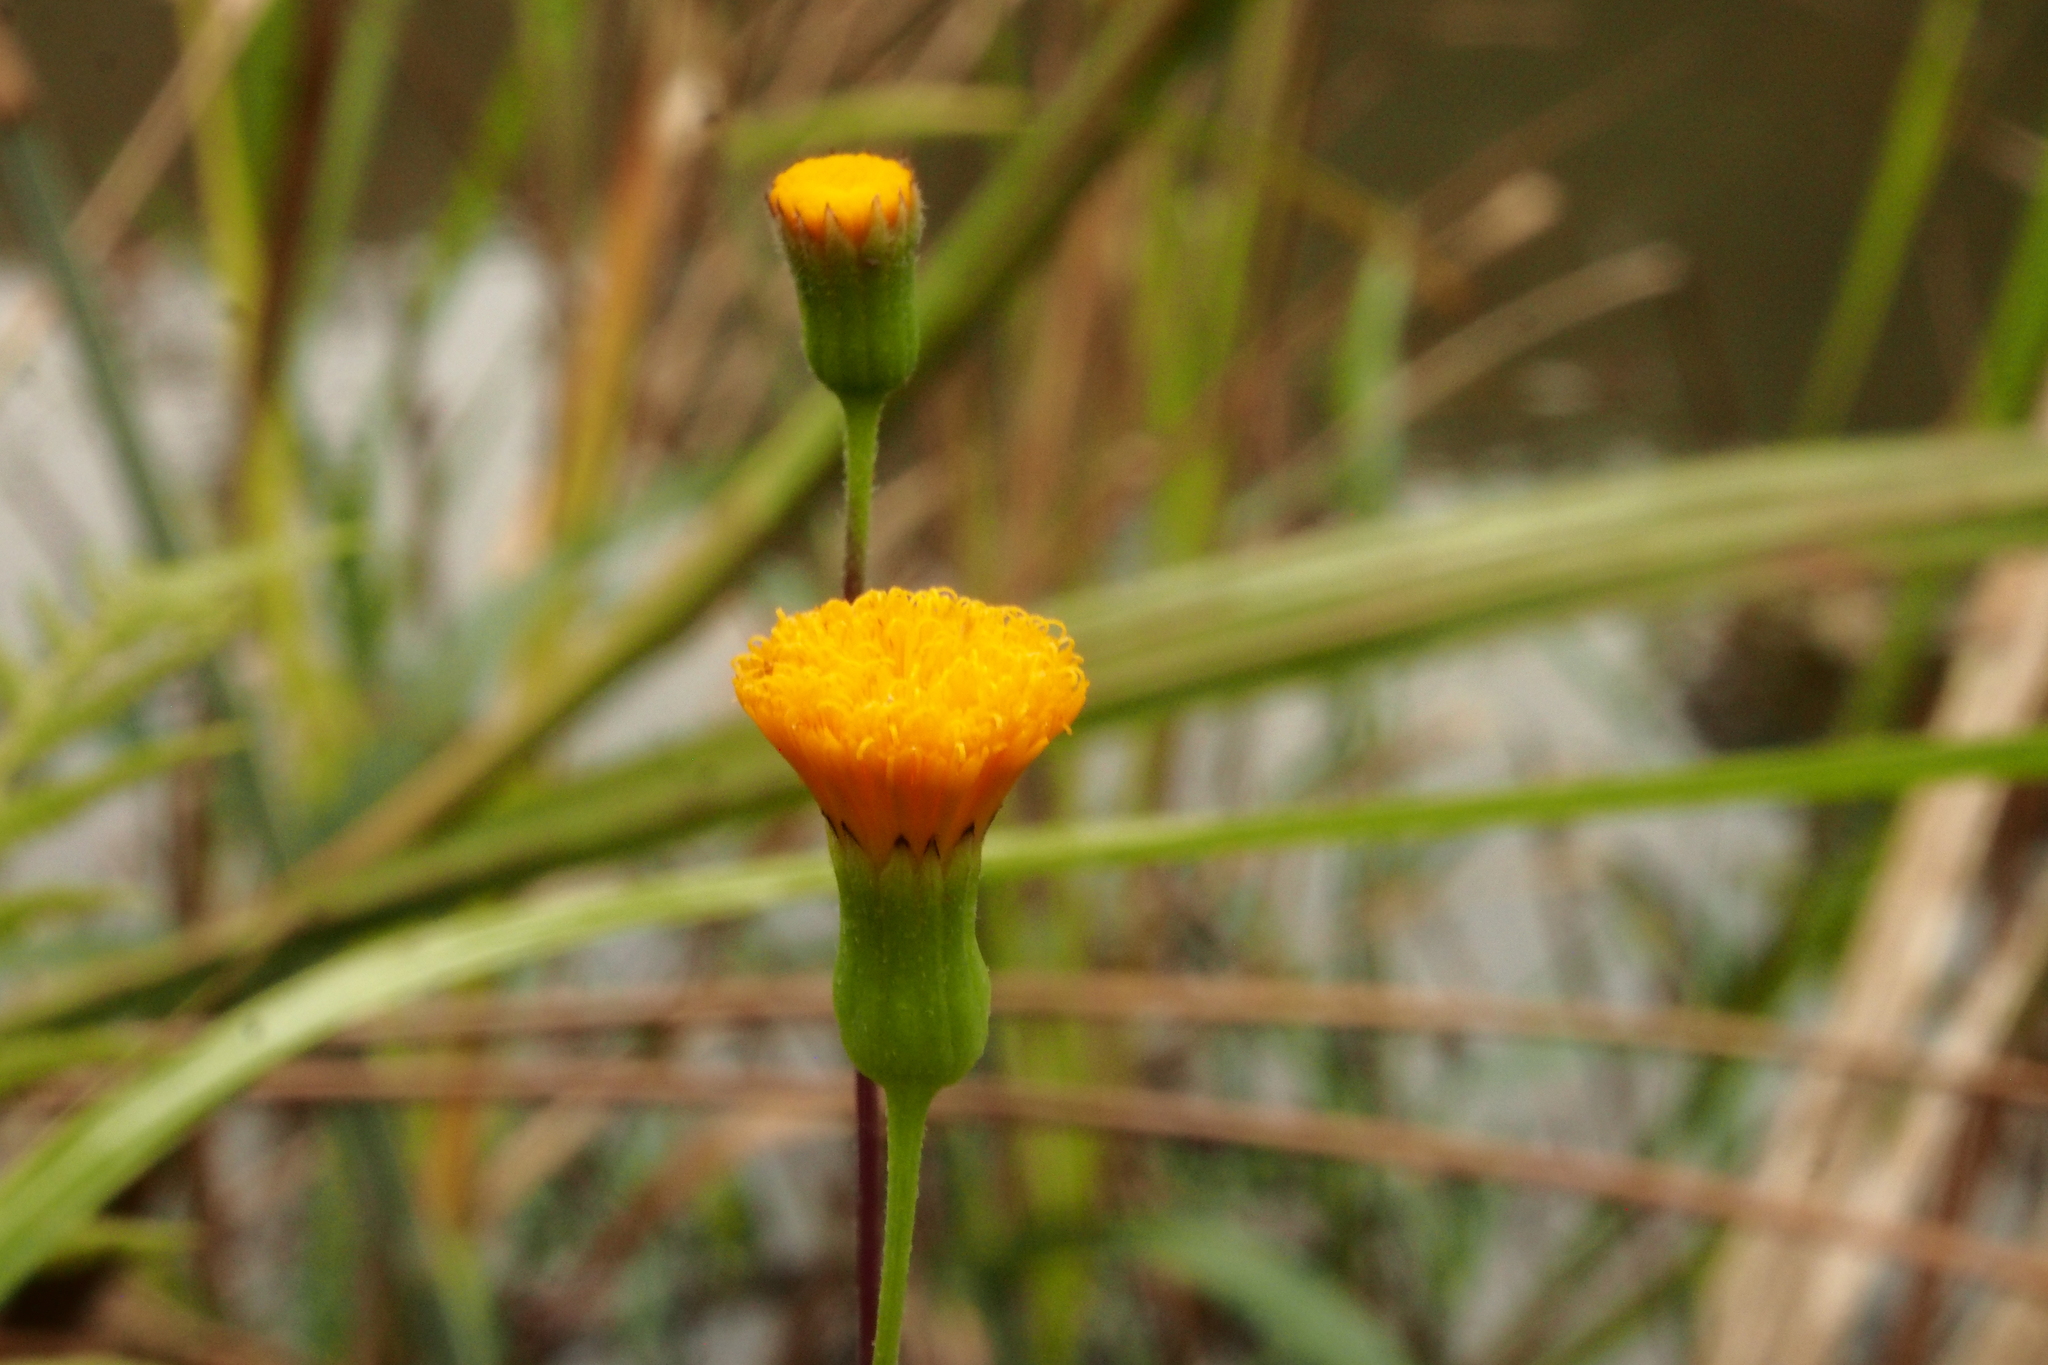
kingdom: Plantae
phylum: Tracheophyta
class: Magnoliopsida
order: Asterales
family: Asteraceae
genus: Emilia
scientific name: Emilia lisowskiana
